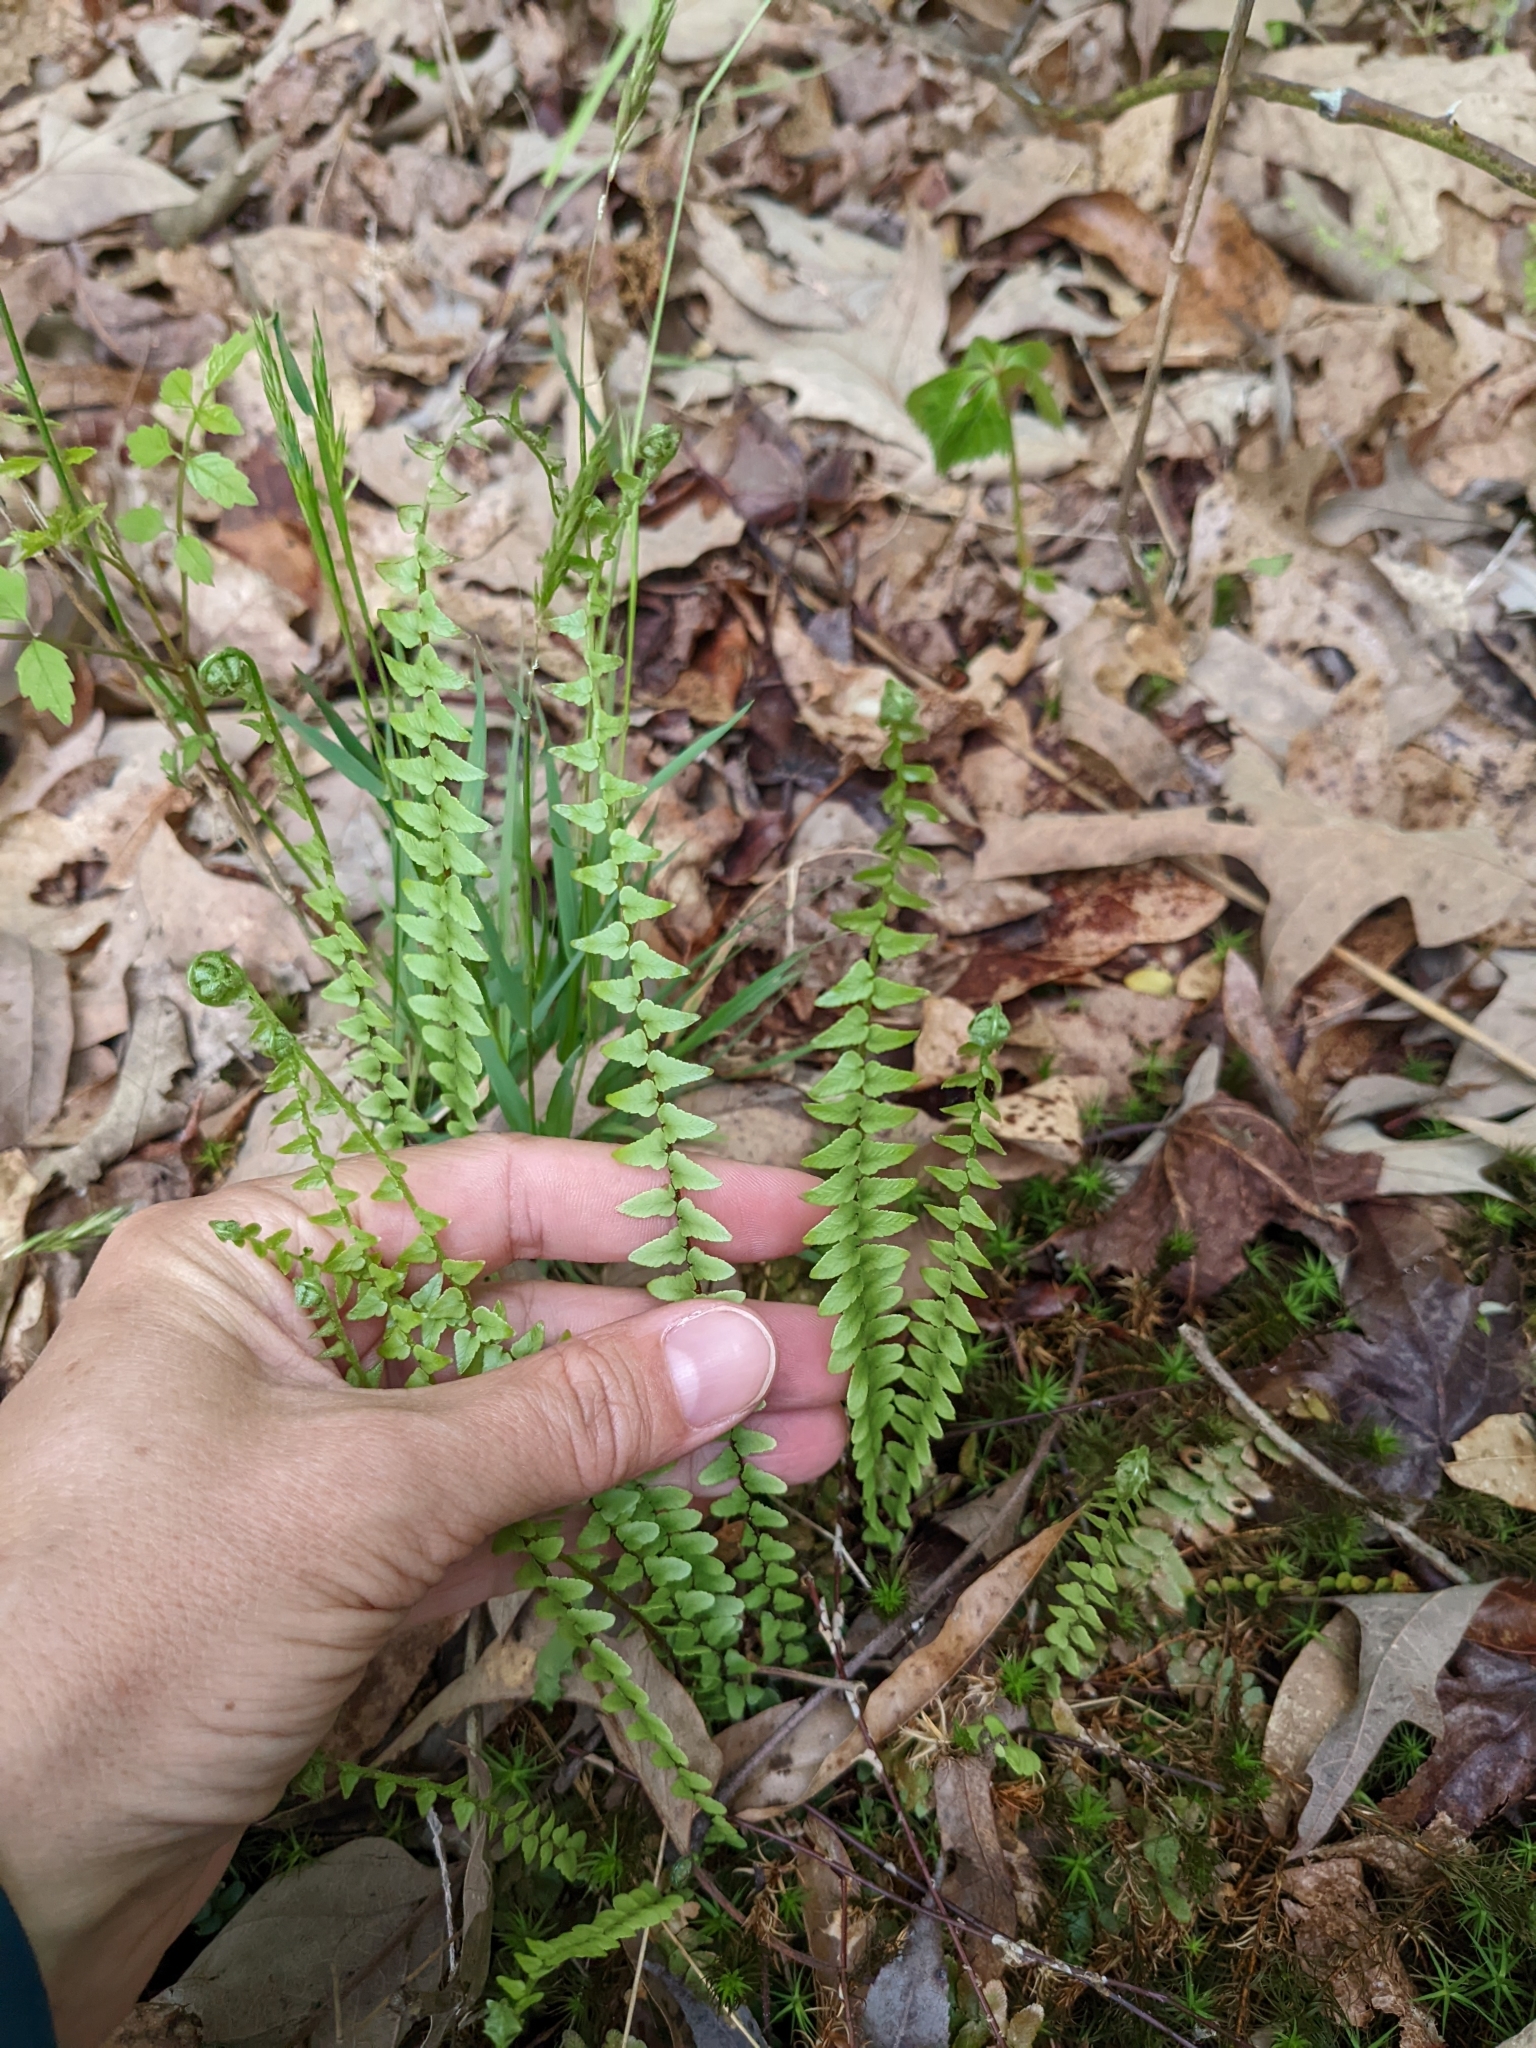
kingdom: Plantae
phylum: Tracheophyta
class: Polypodiopsida
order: Polypodiales
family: Aspleniaceae
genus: Asplenium
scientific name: Asplenium platyneuron
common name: Ebony spleenwort
